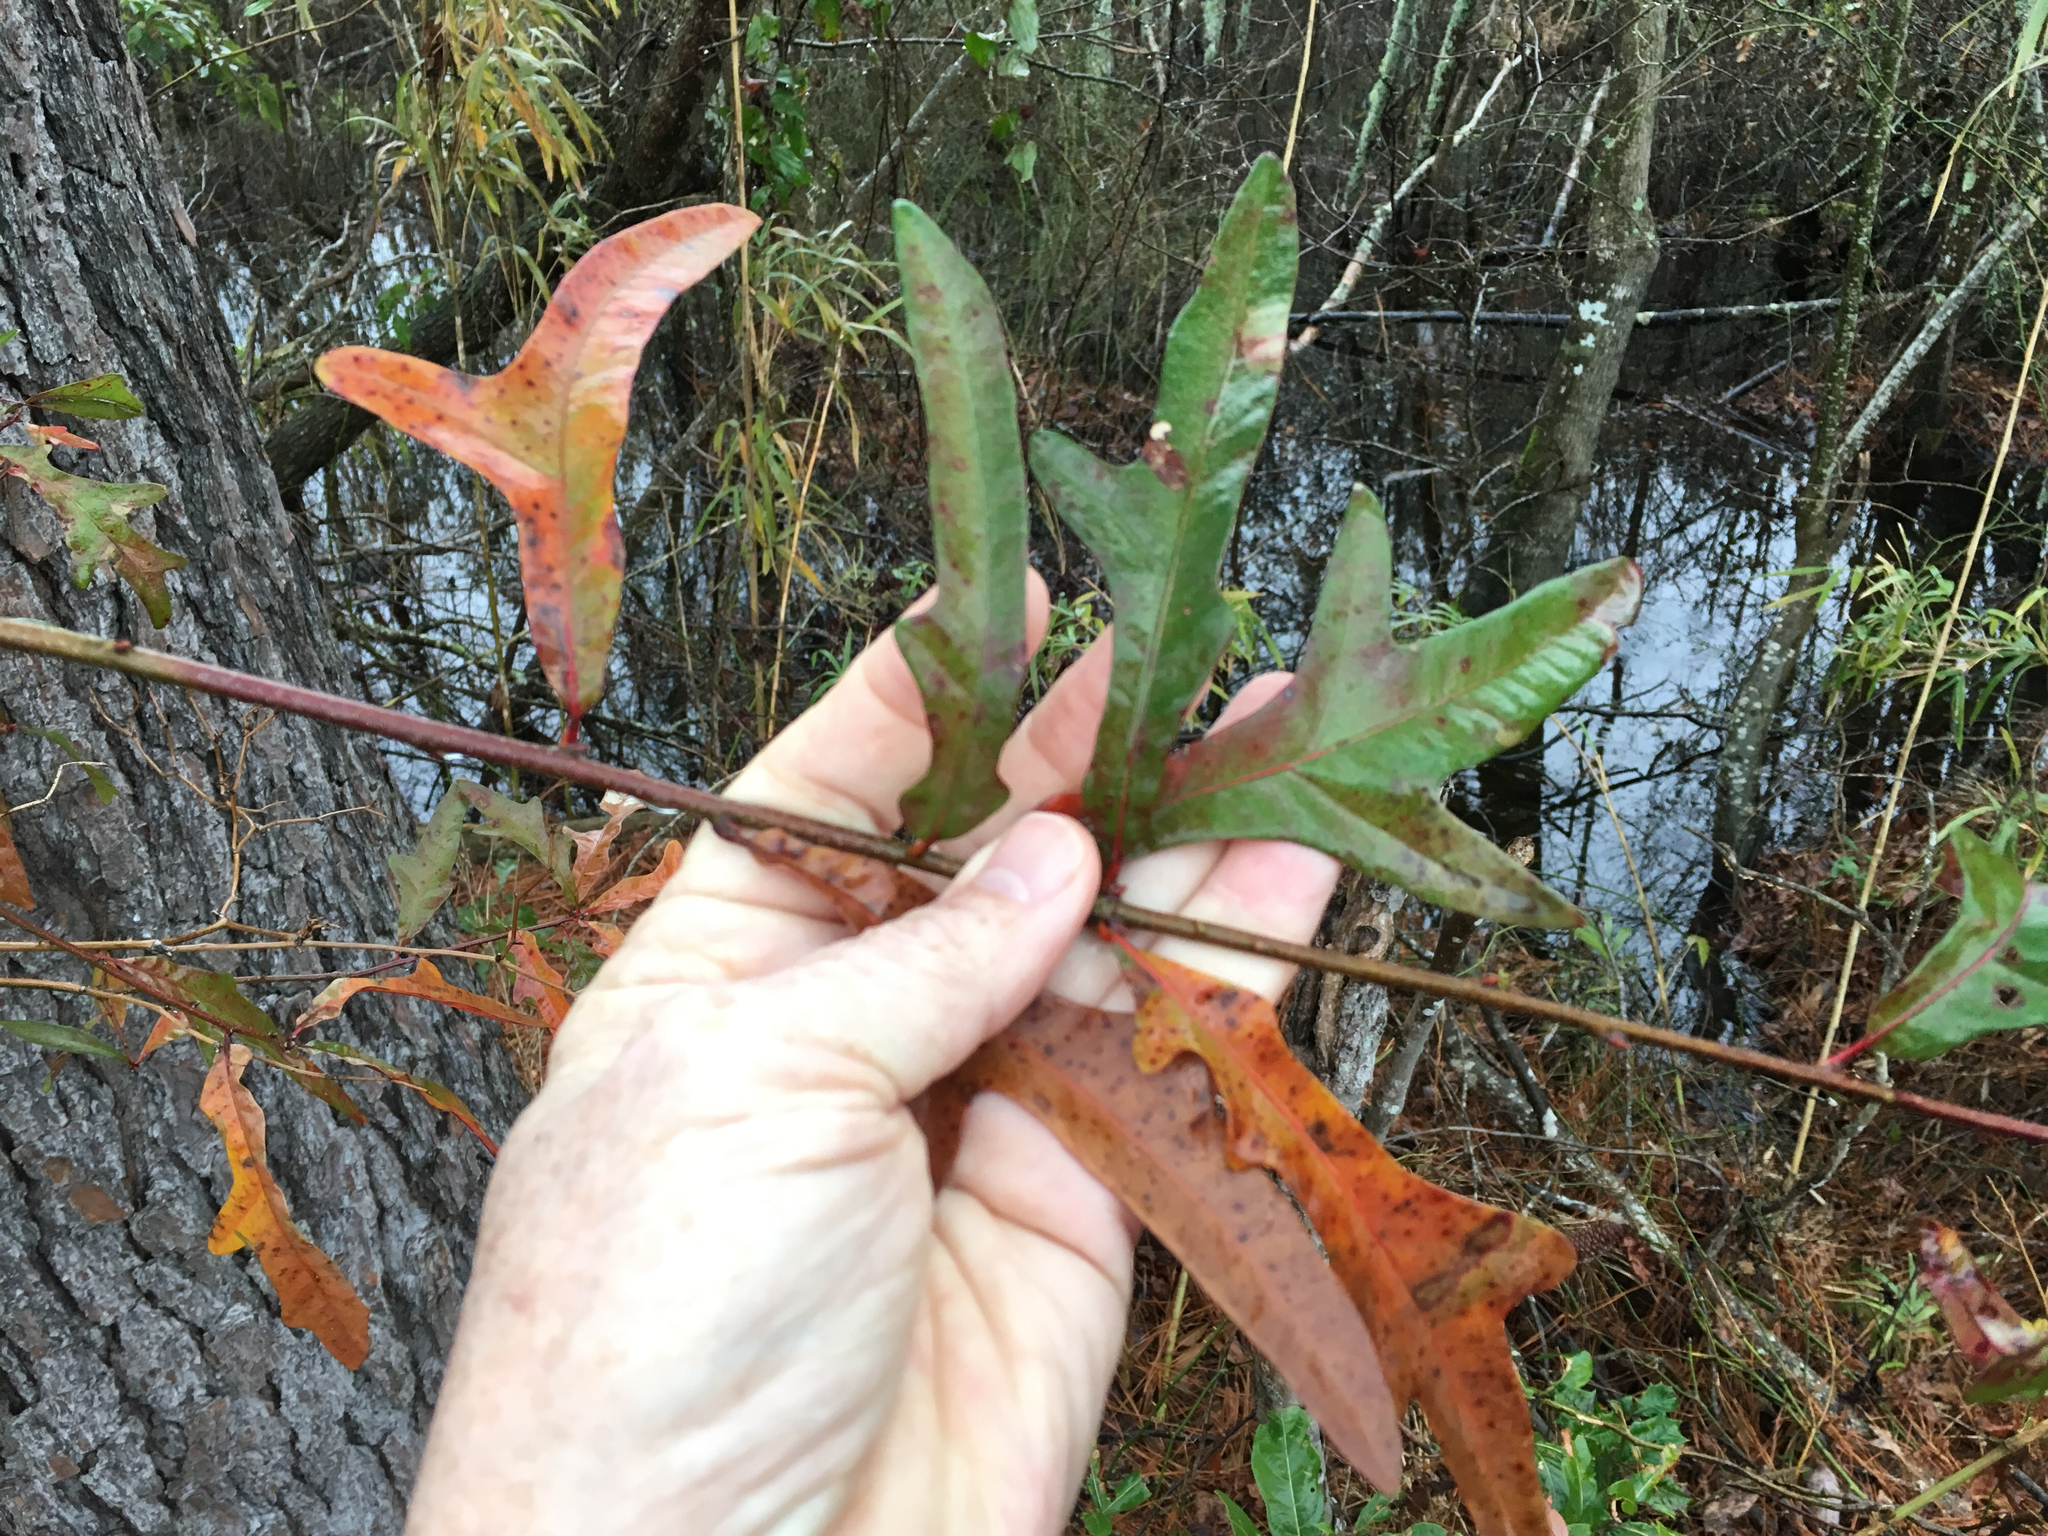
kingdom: Plantae
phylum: Tracheophyta
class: Magnoliopsida
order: Fagales
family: Fagaceae
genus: Quercus
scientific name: Quercus nigra
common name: Water oak
